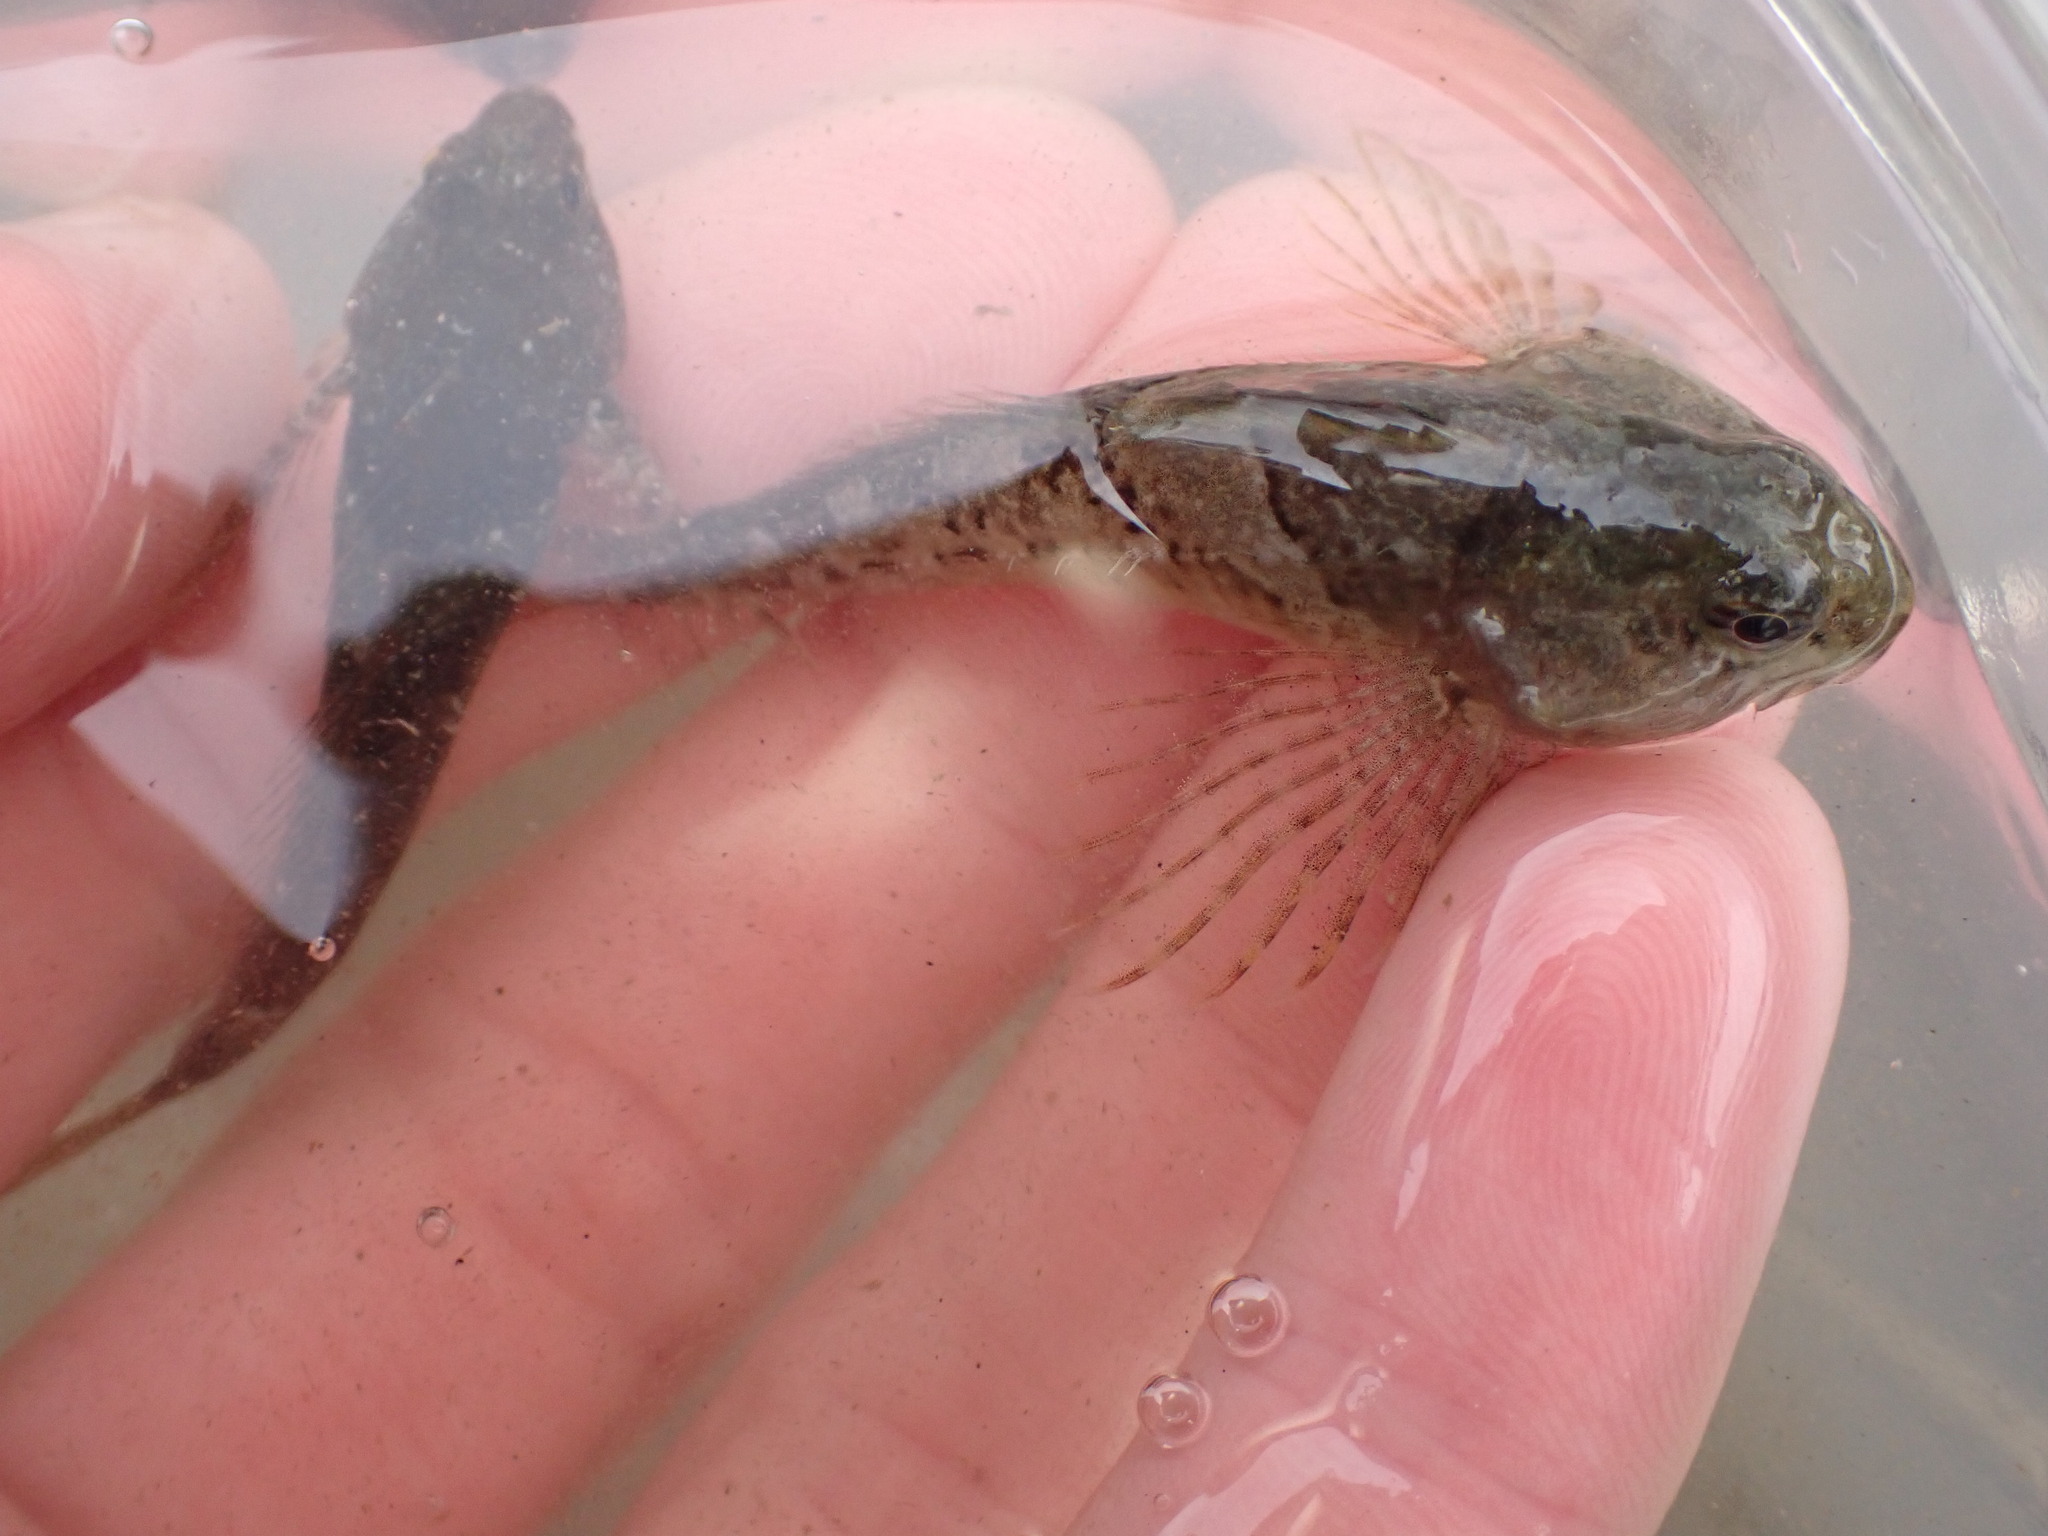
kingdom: Animalia
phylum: Chordata
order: Scorpaeniformes
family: Cottidae
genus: Oligocottus
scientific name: Oligocottus maculosus
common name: Tidepool sculpin
